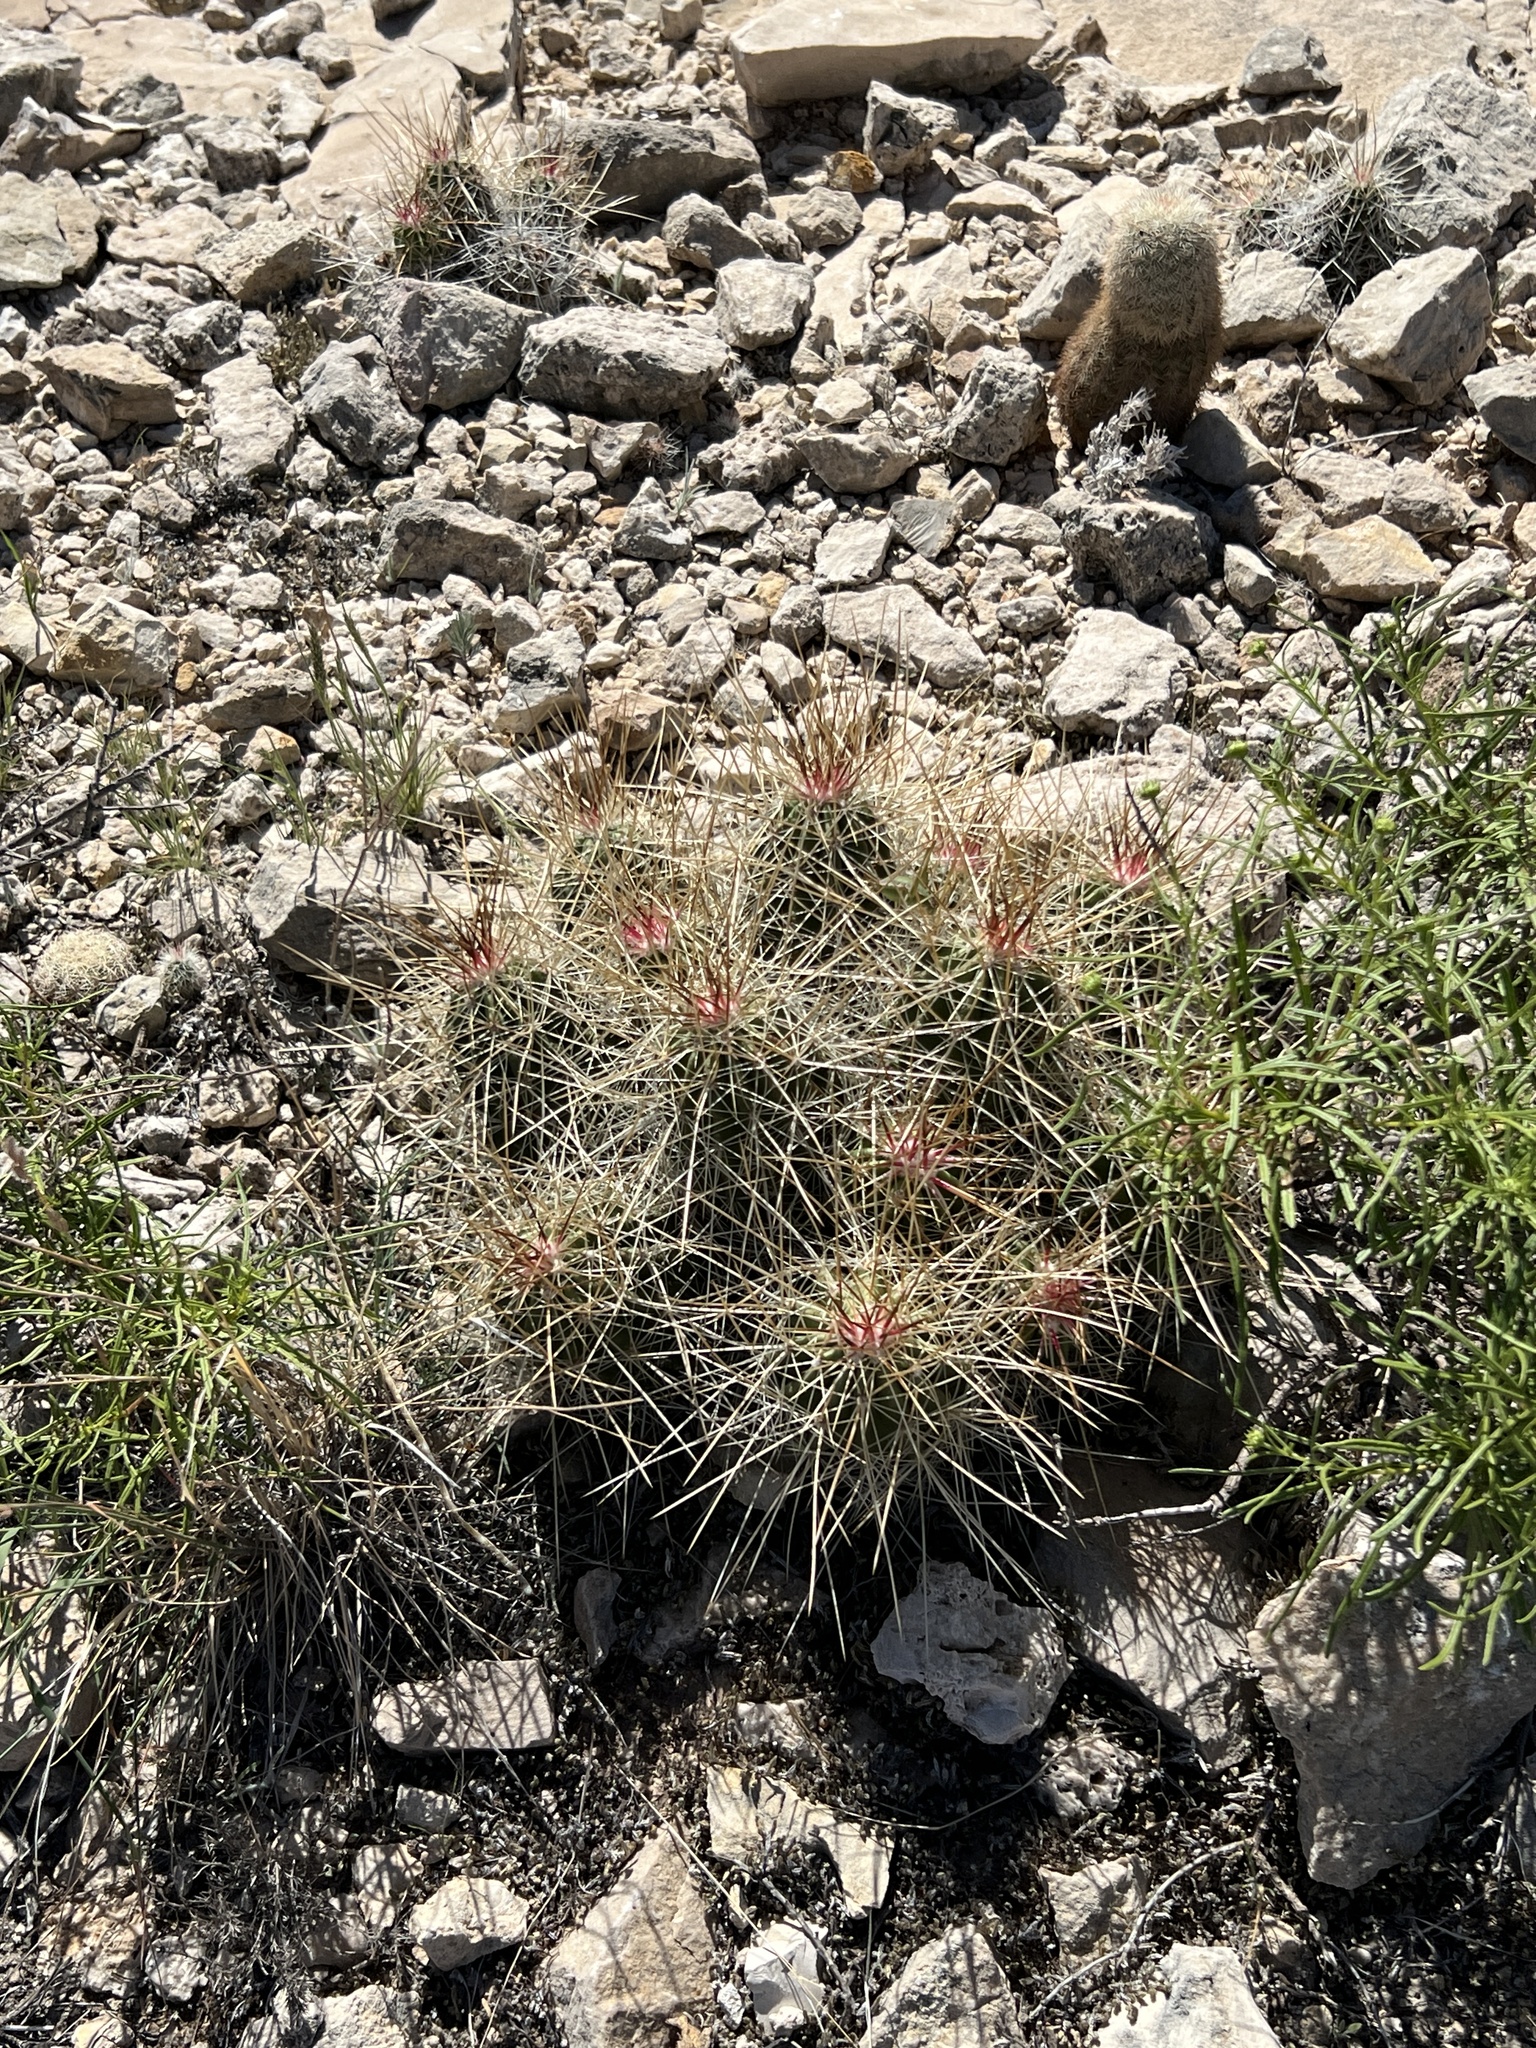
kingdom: Plantae
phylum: Tracheophyta
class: Magnoliopsida
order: Caryophyllales
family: Cactaceae
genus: Echinocereus
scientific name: Echinocereus stramineus
